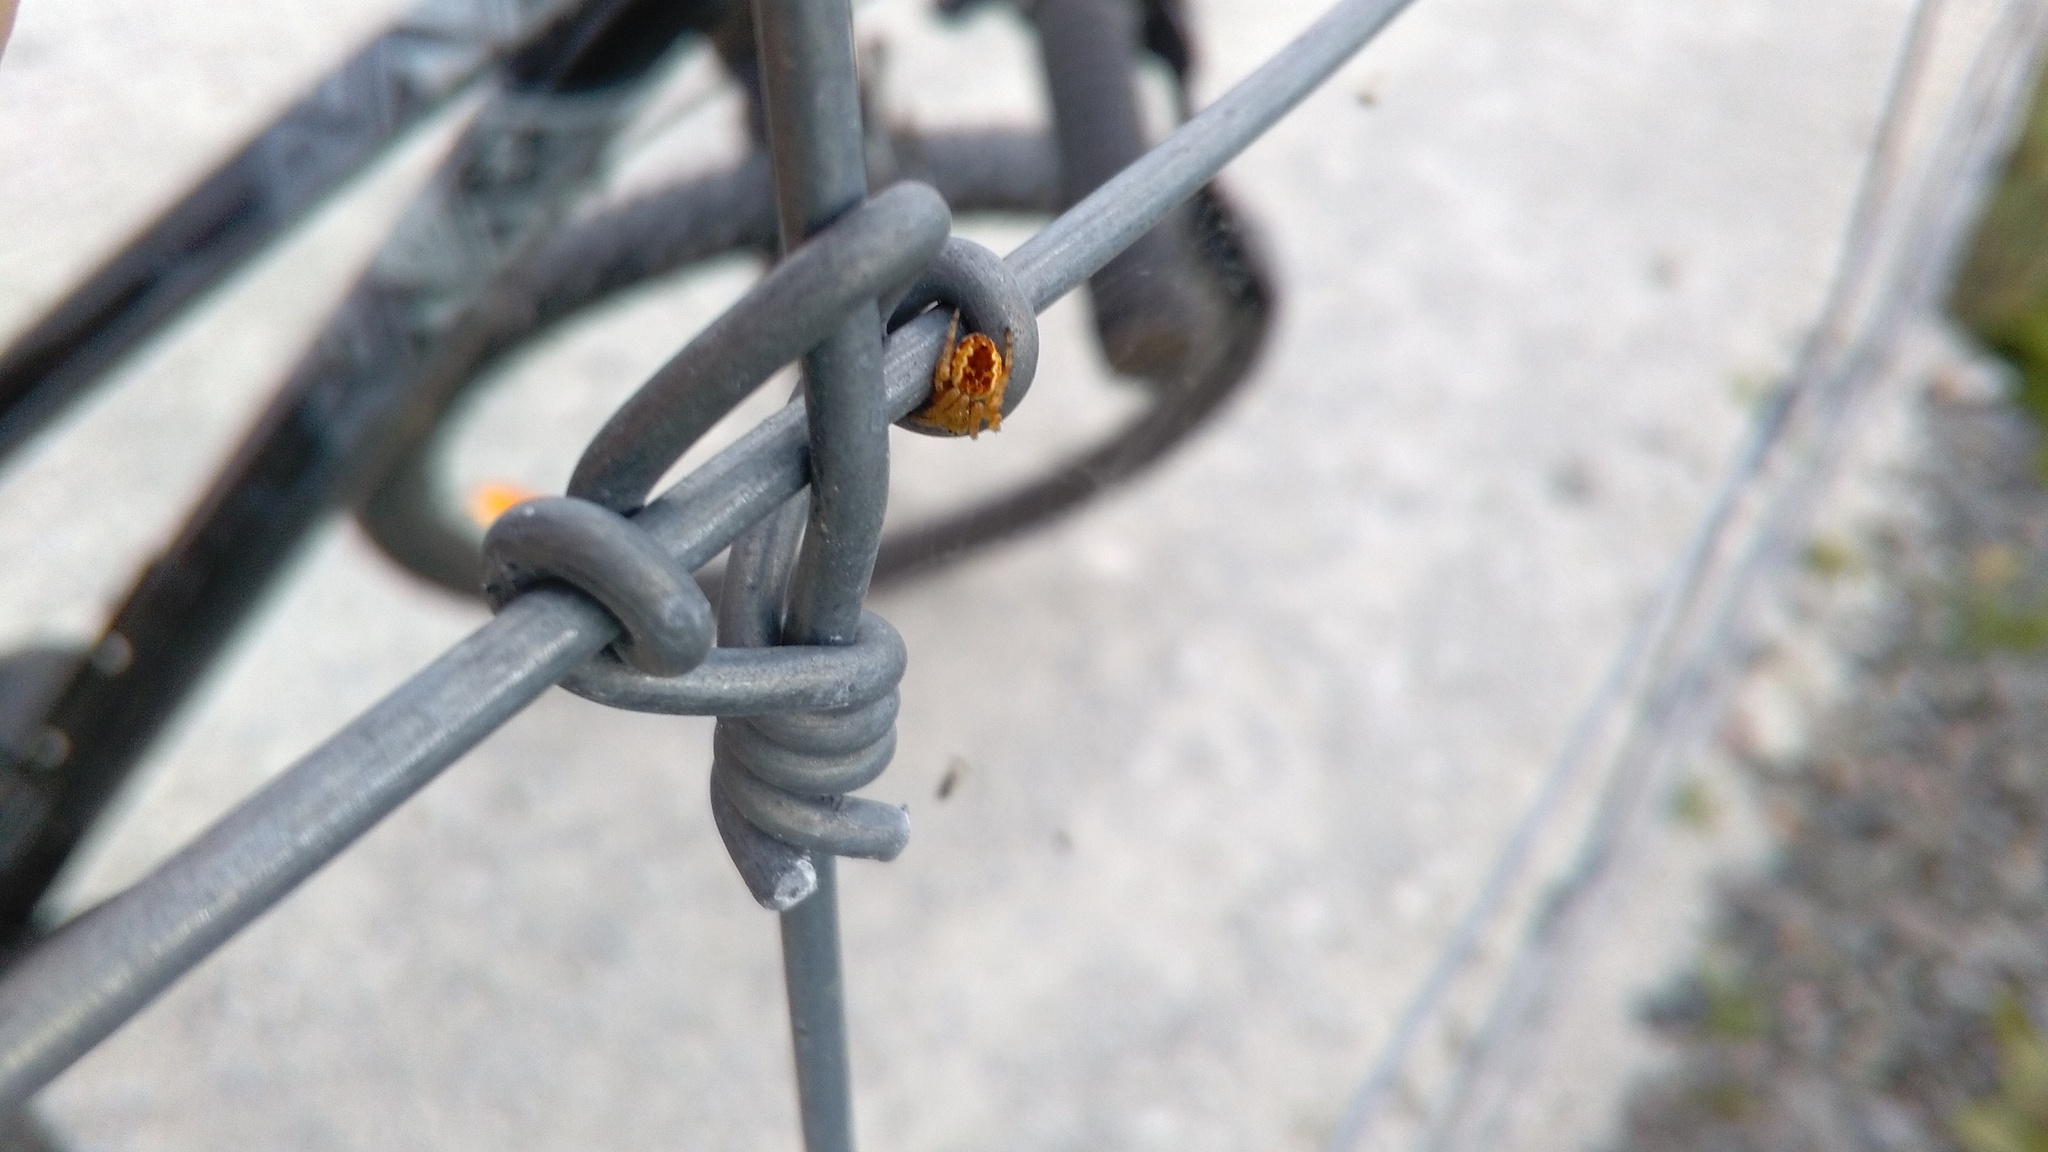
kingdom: Animalia
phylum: Arthropoda
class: Arachnida
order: Araneae
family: Araneidae
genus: Salsa
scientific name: Salsa fuliginata
